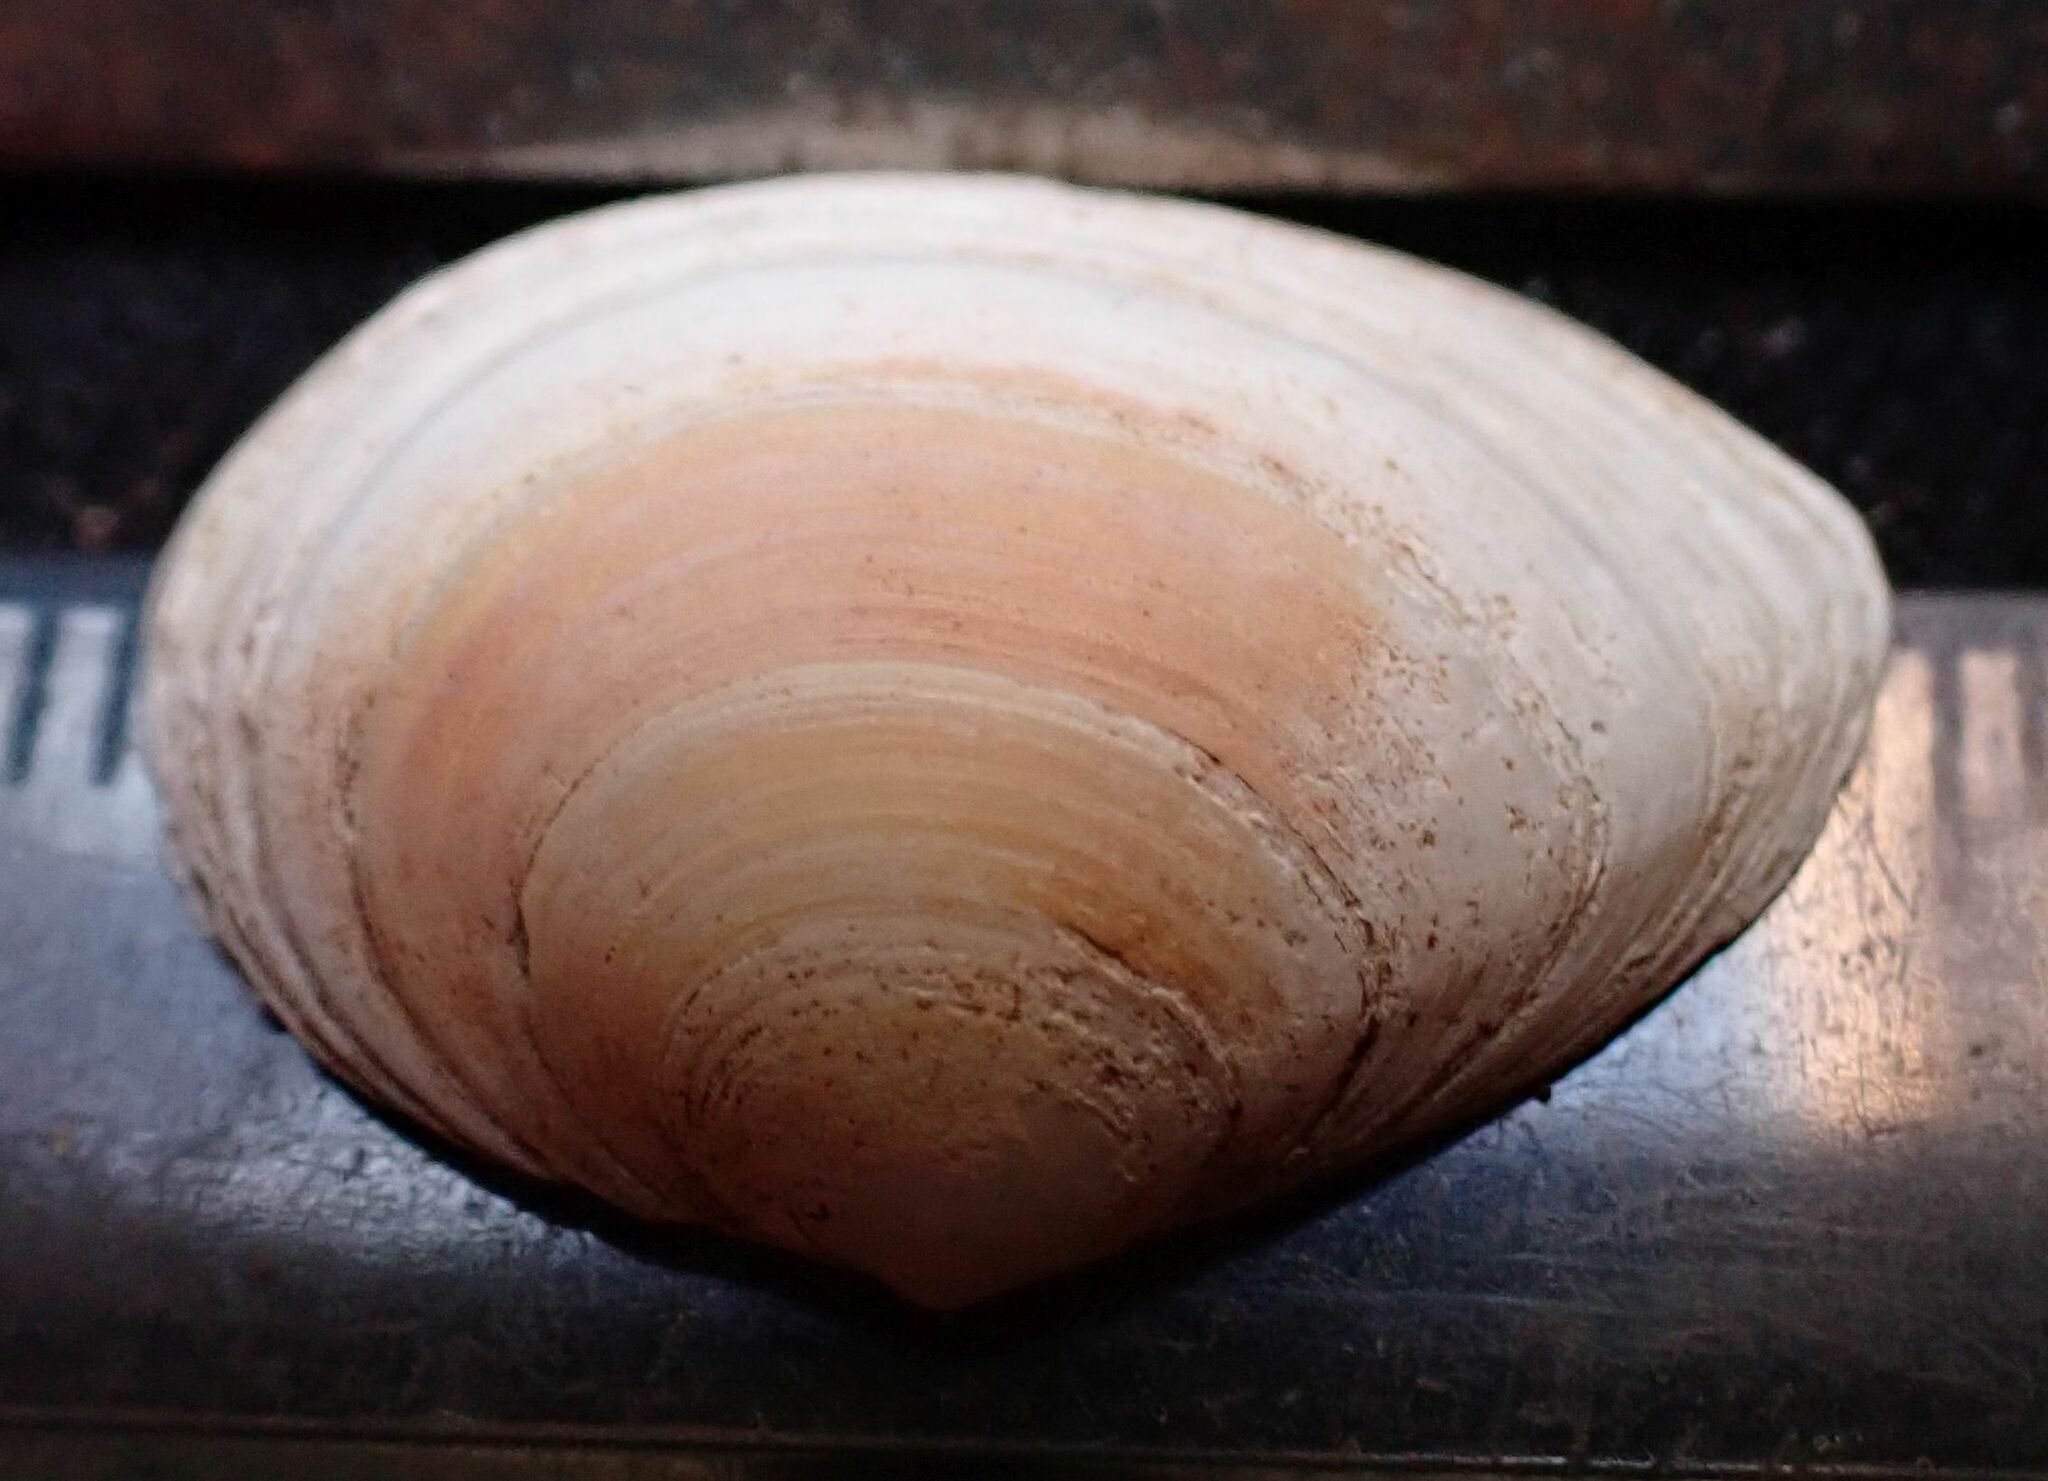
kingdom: Animalia
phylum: Mollusca
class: Bivalvia
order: Cardiida
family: Tellinidae
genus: Macoma
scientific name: Macoma balthica
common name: Baltic tellin
